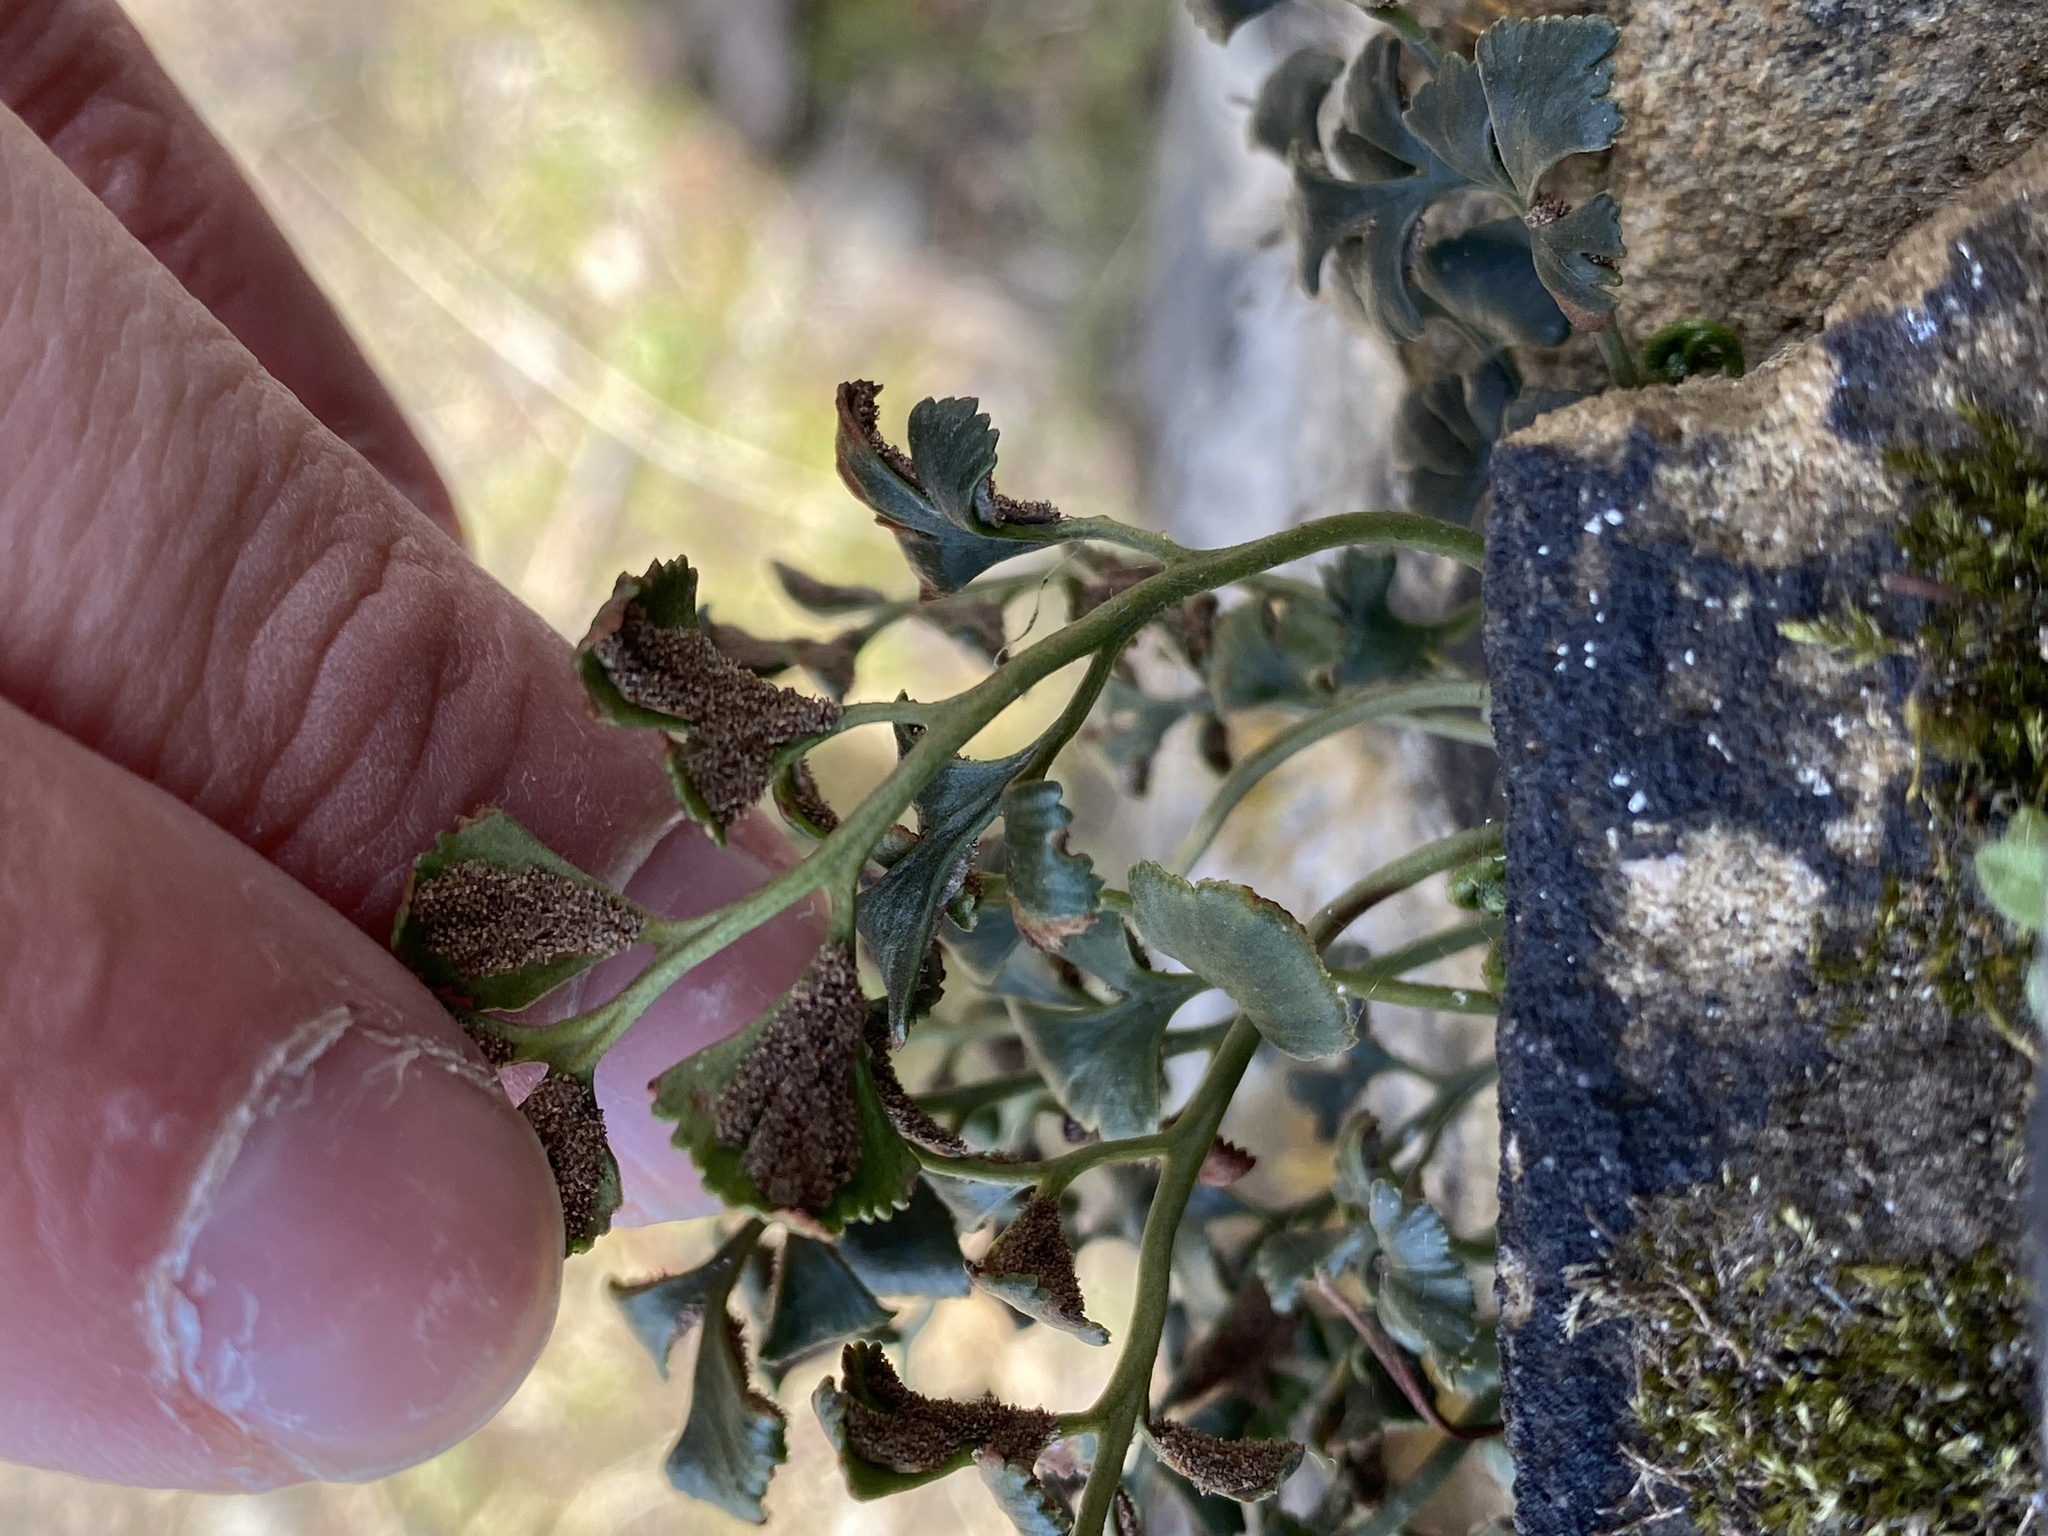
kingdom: Plantae
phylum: Tracheophyta
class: Polypodiopsida
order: Polypodiales
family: Aspleniaceae
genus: Asplenium
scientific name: Asplenium ruta-muraria
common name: Wall-rue
